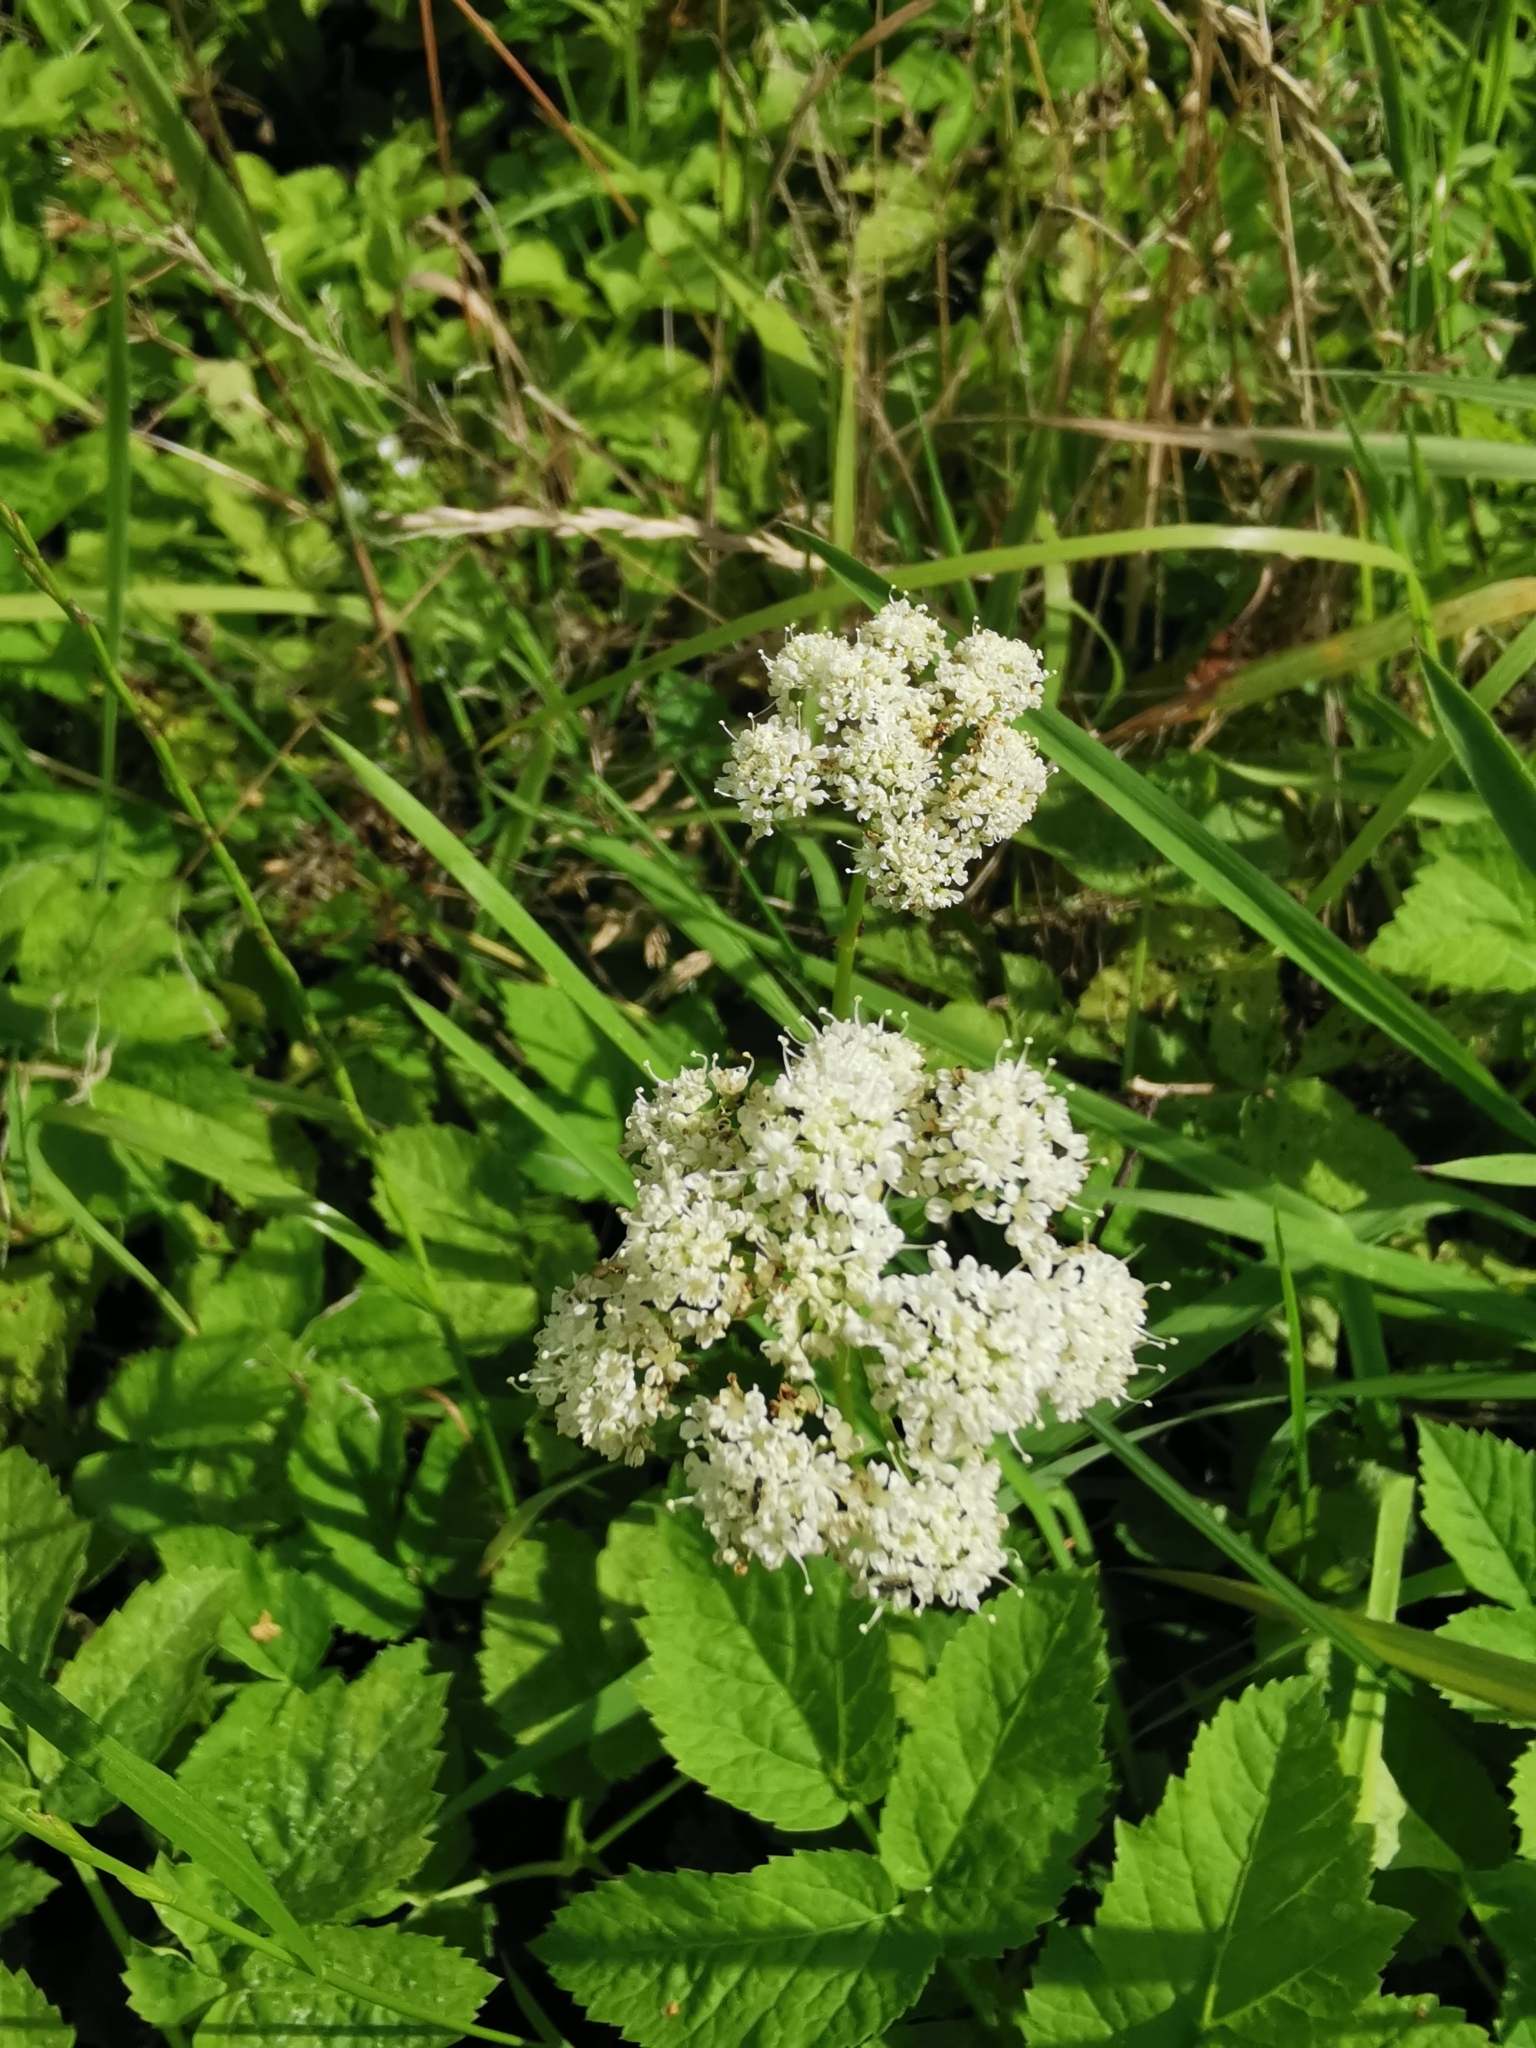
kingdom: Plantae
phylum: Tracheophyta
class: Magnoliopsida
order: Apiales
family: Apiaceae
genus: Aegopodium
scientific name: Aegopodium podagraria
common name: Ground-elder
